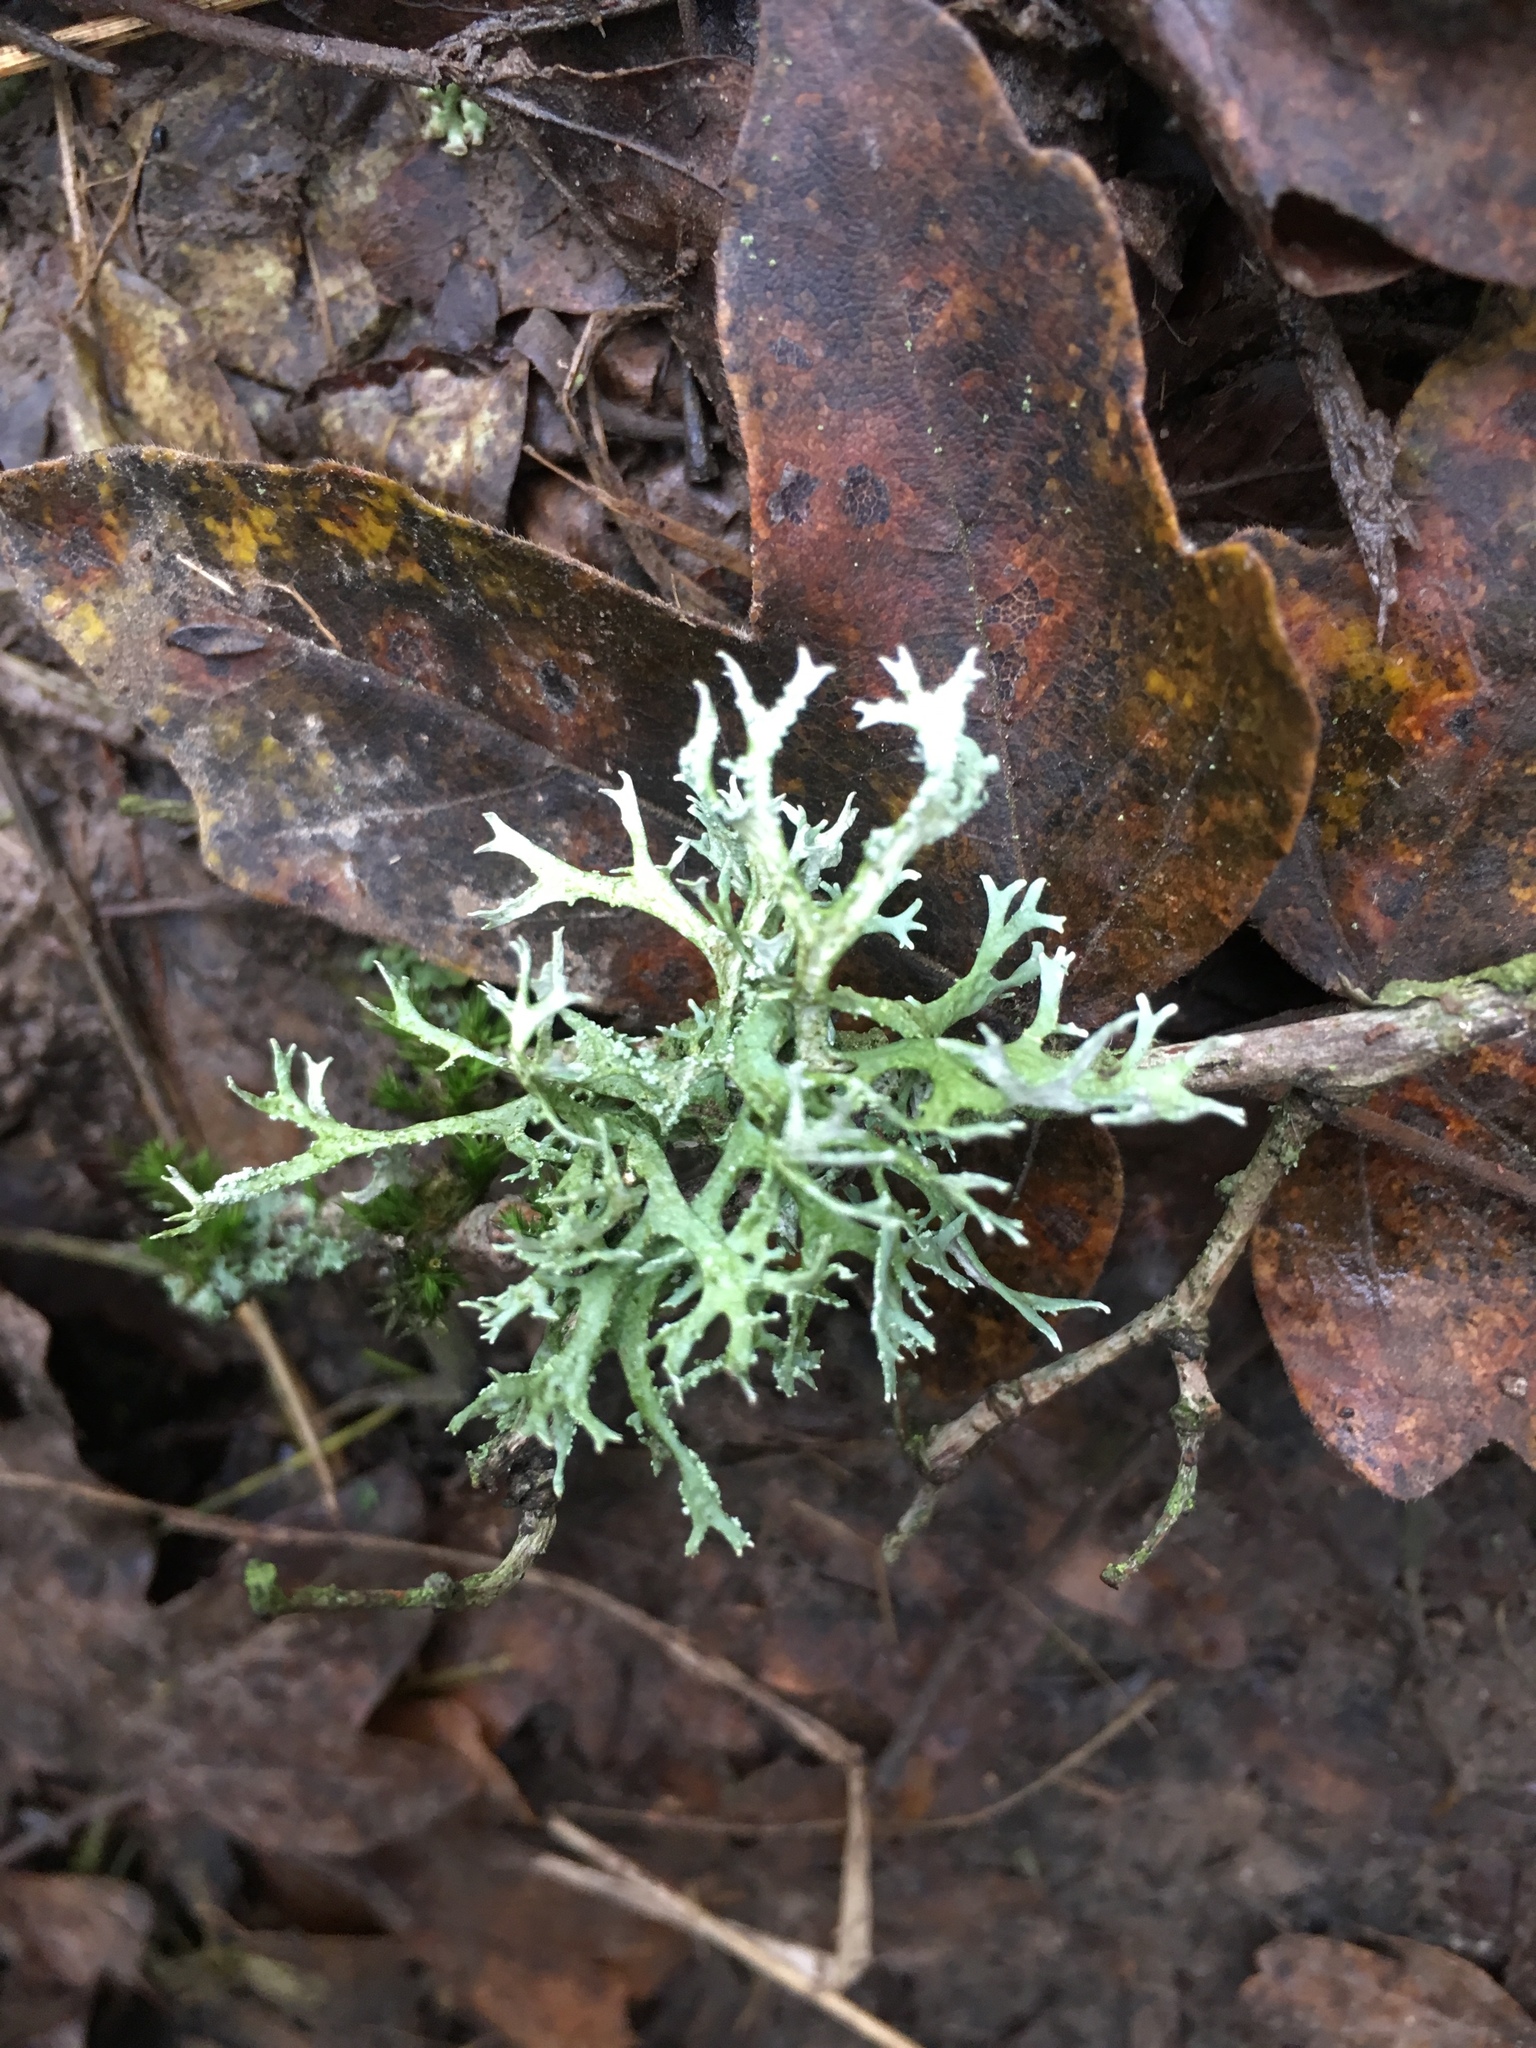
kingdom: Fungi
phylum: Ascomycota
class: Lecanoromycetes
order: Lecanorales
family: Parmeliaceae
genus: Evernia
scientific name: Evernia prunastri
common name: Oak moss
